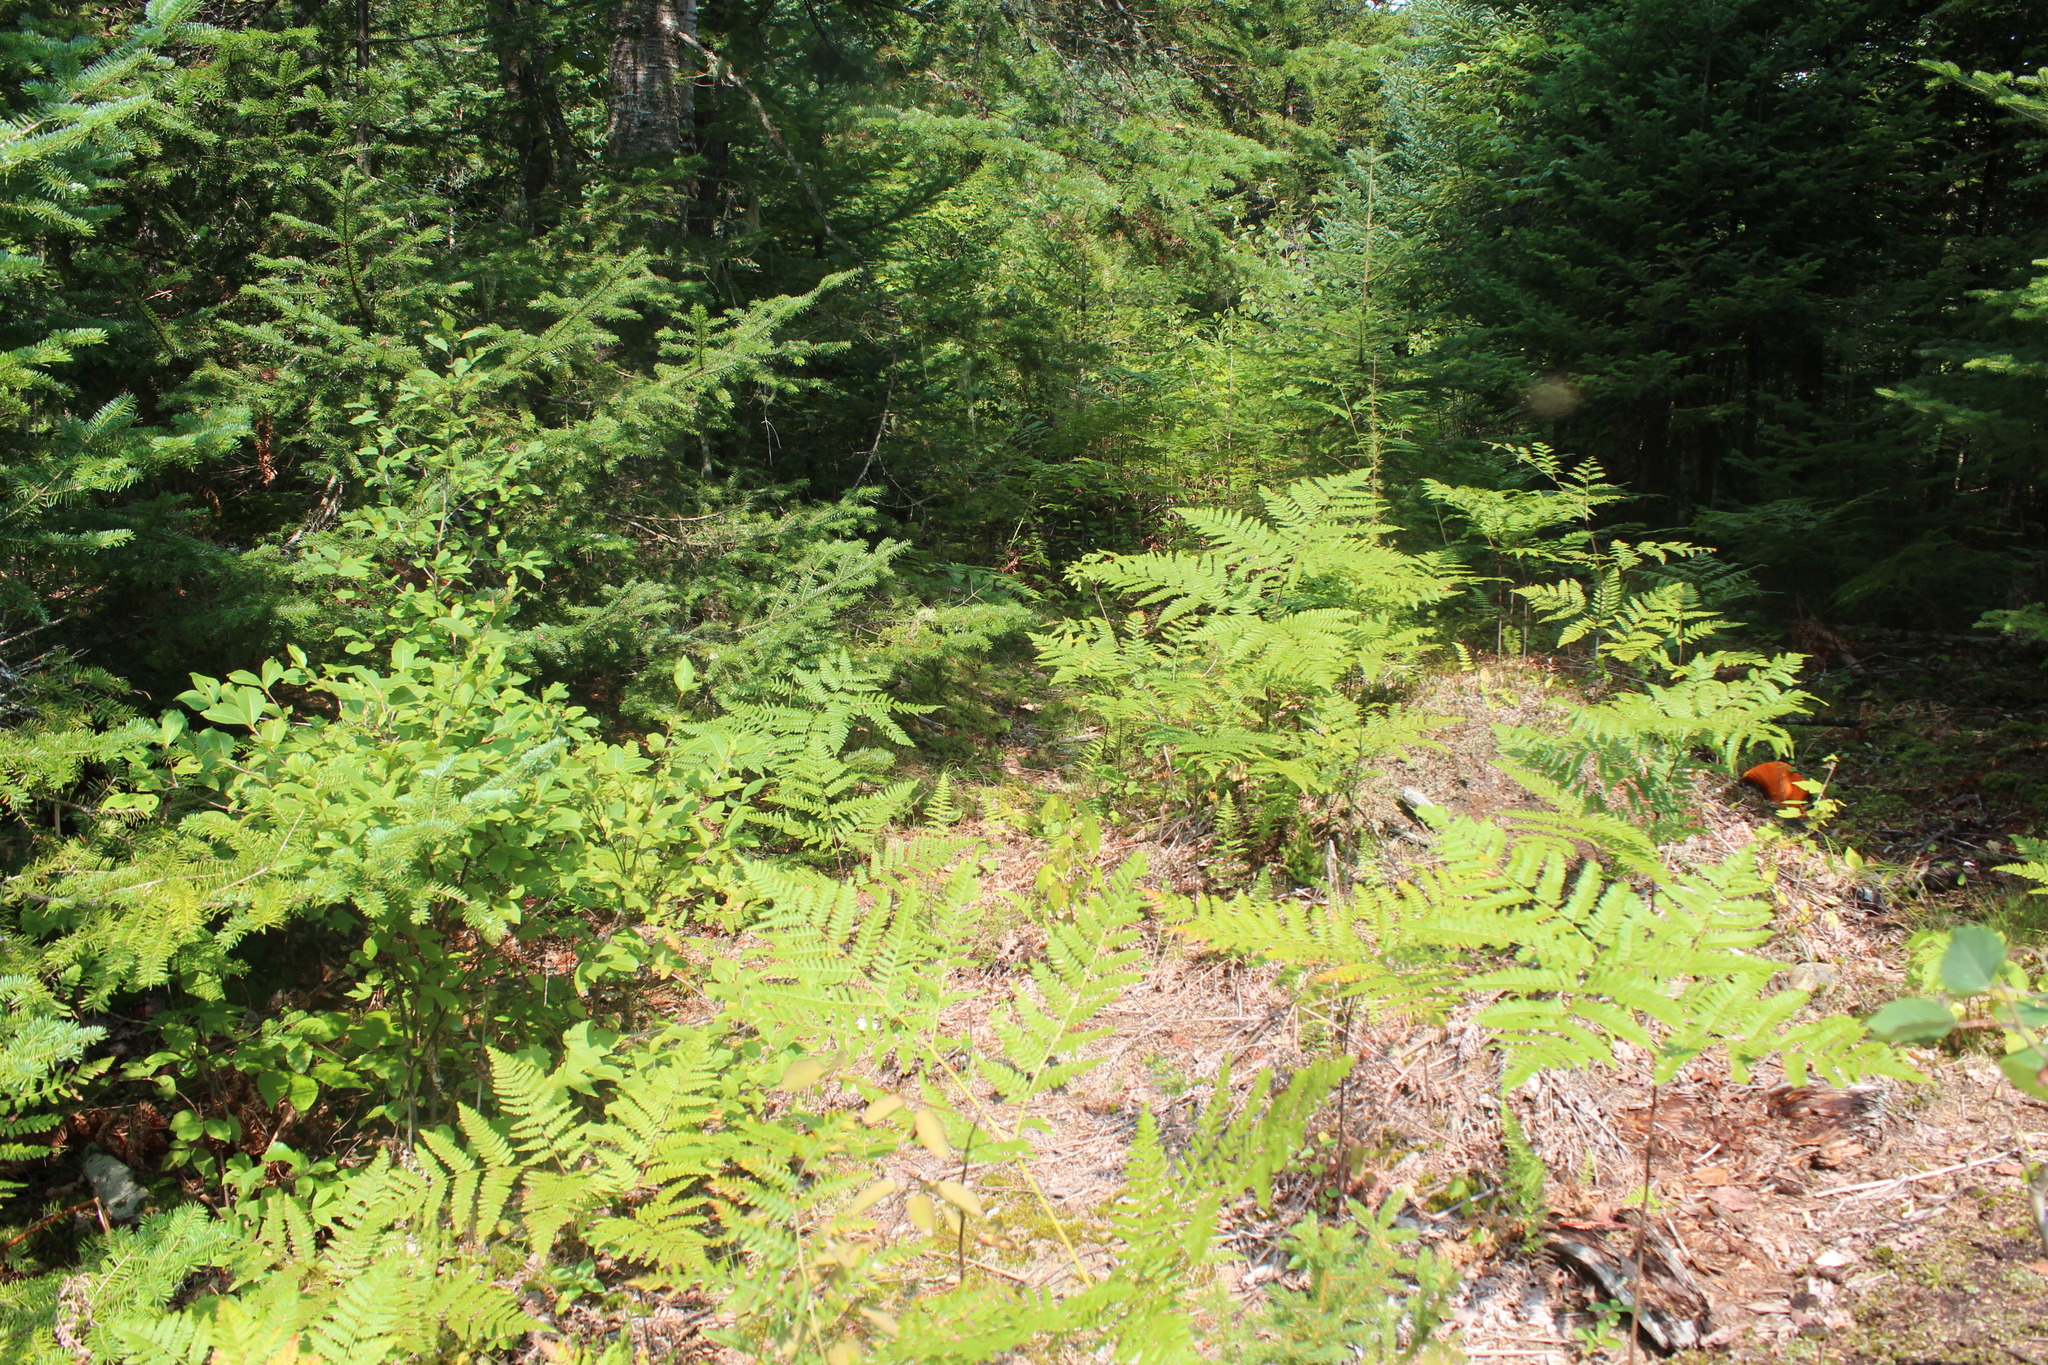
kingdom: Plantae
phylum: Tracheophyta
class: Polypodiopsida
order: Polypodiales
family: Dennstaedtiaceae
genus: Pteridium
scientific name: Pteridium aquilinum
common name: Bracken
